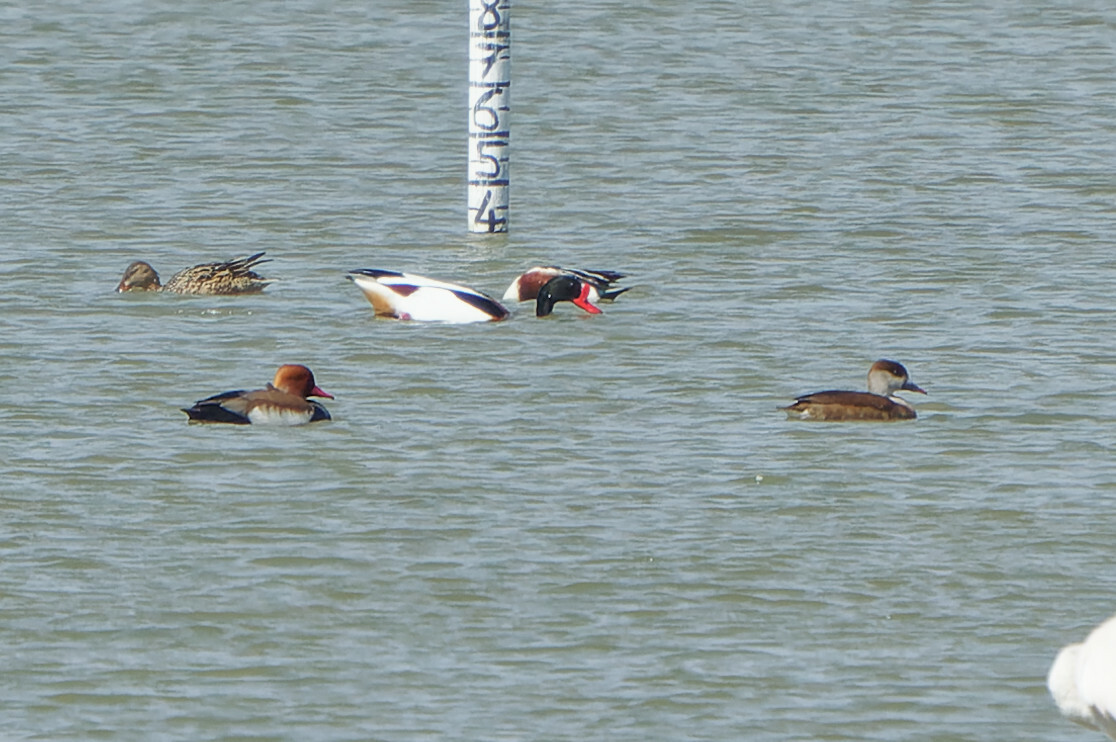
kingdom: Animalia
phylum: Chordata
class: Aves
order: Anseriformes
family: Anatidae
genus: Netta
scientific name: Netta rufina
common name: Red-crested pochard
